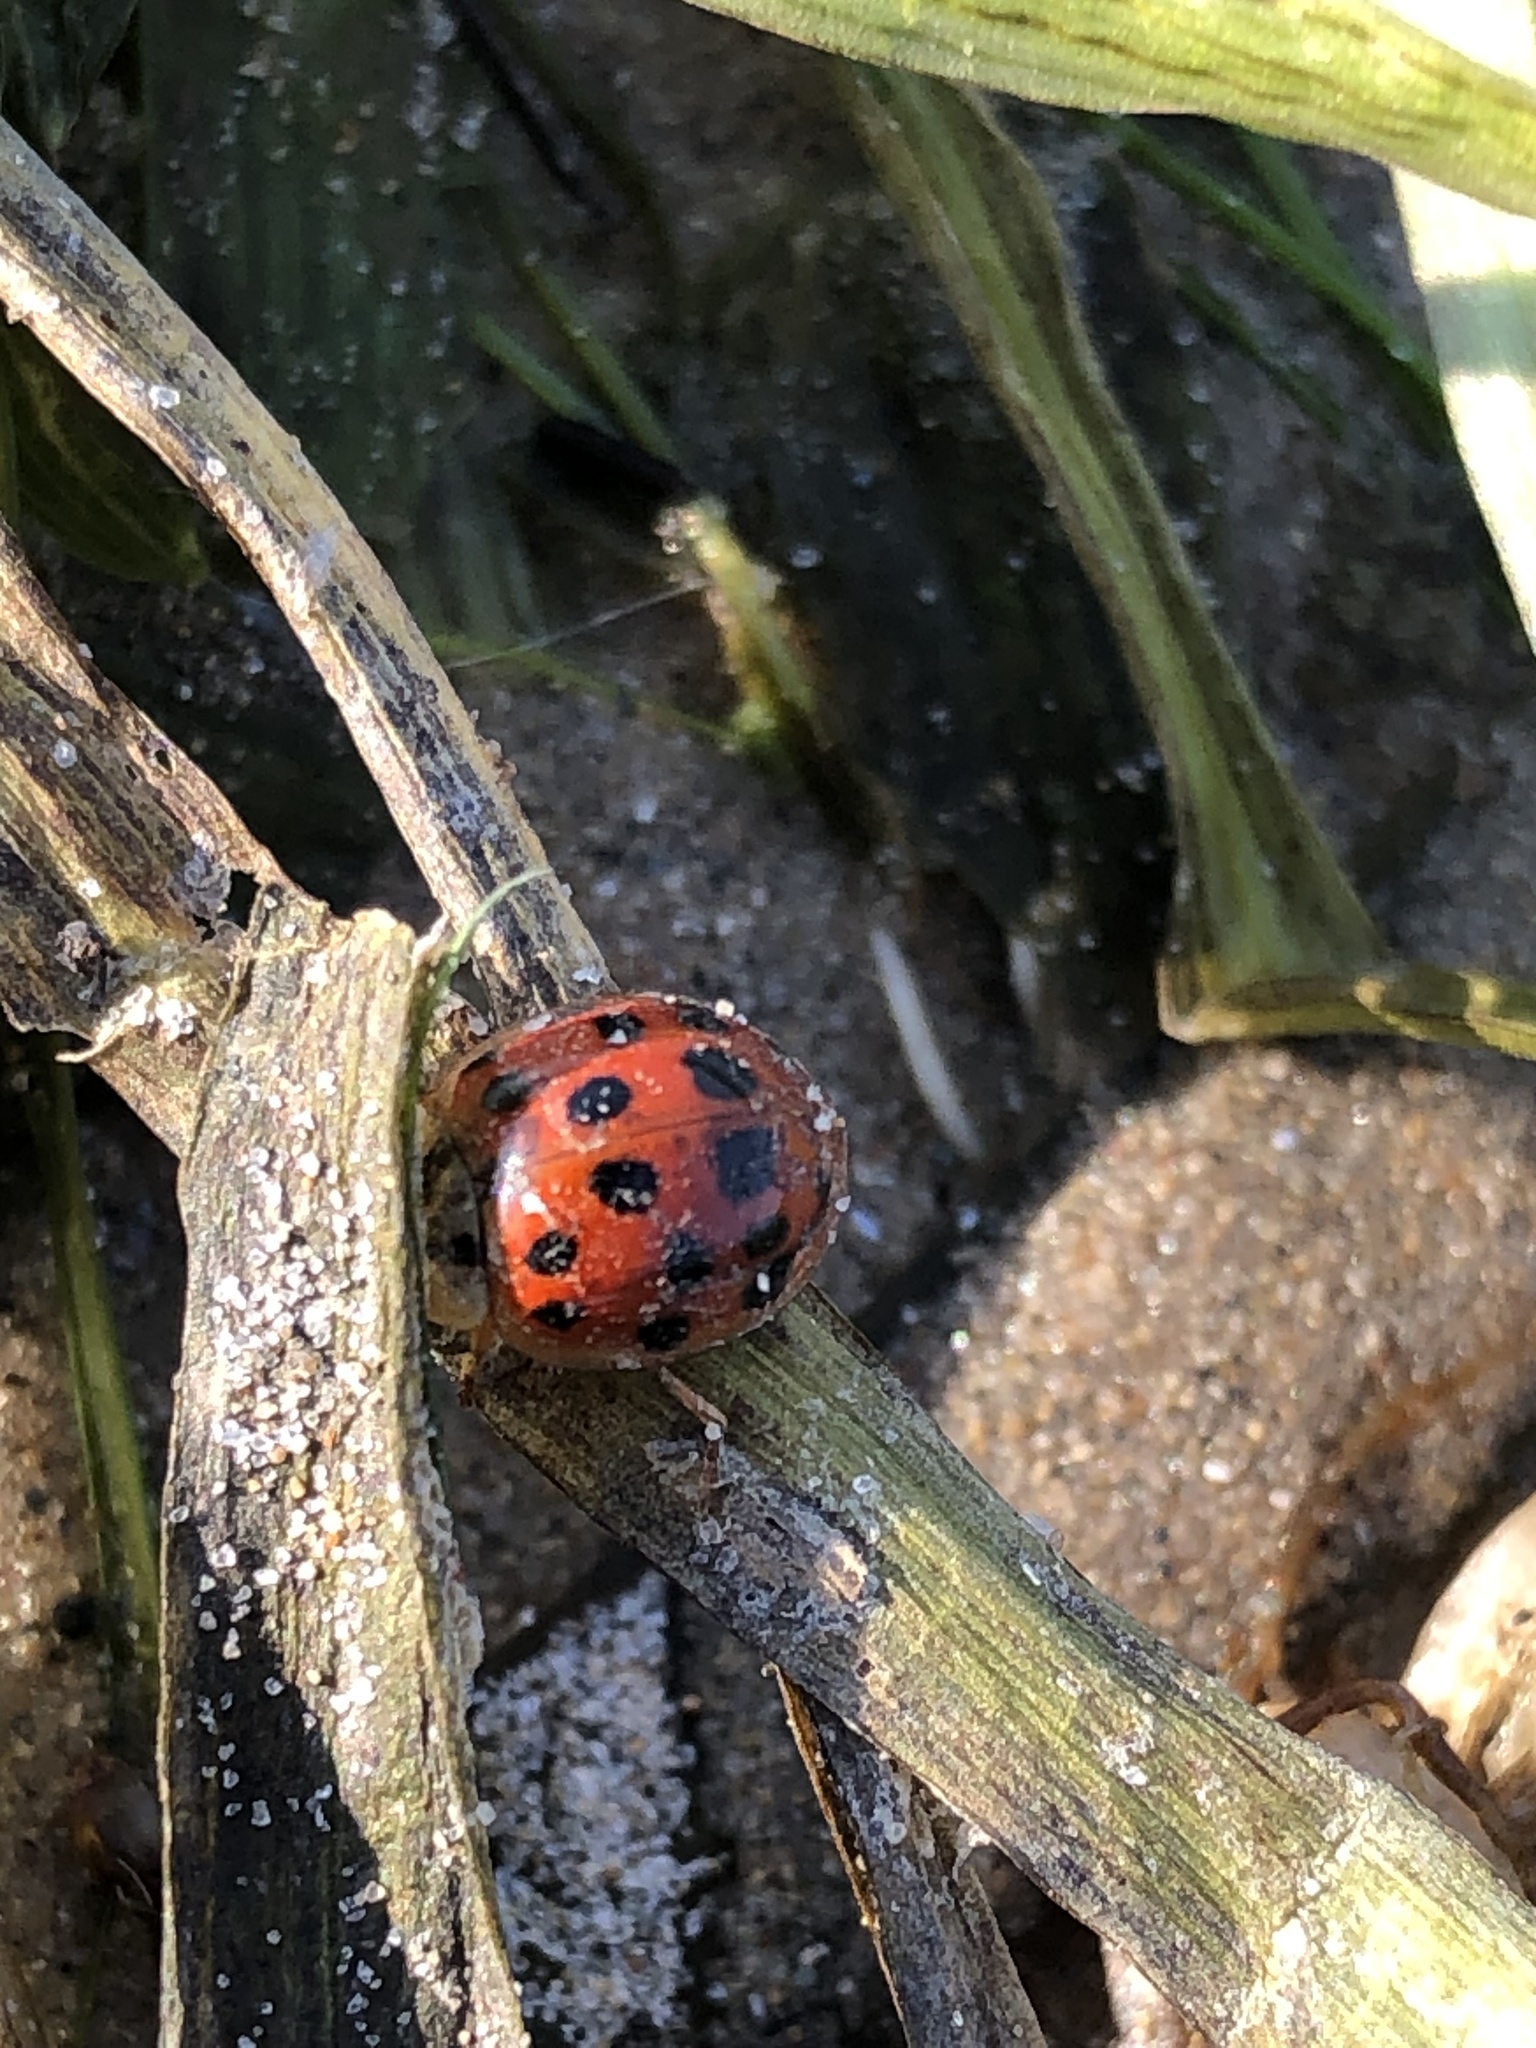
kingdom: Animalia
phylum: Arthropoda
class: Insecta
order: Coleoptera
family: Coccinellidae
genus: Harmonia
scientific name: Harmonia axyridis
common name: Harlequin ladybird
